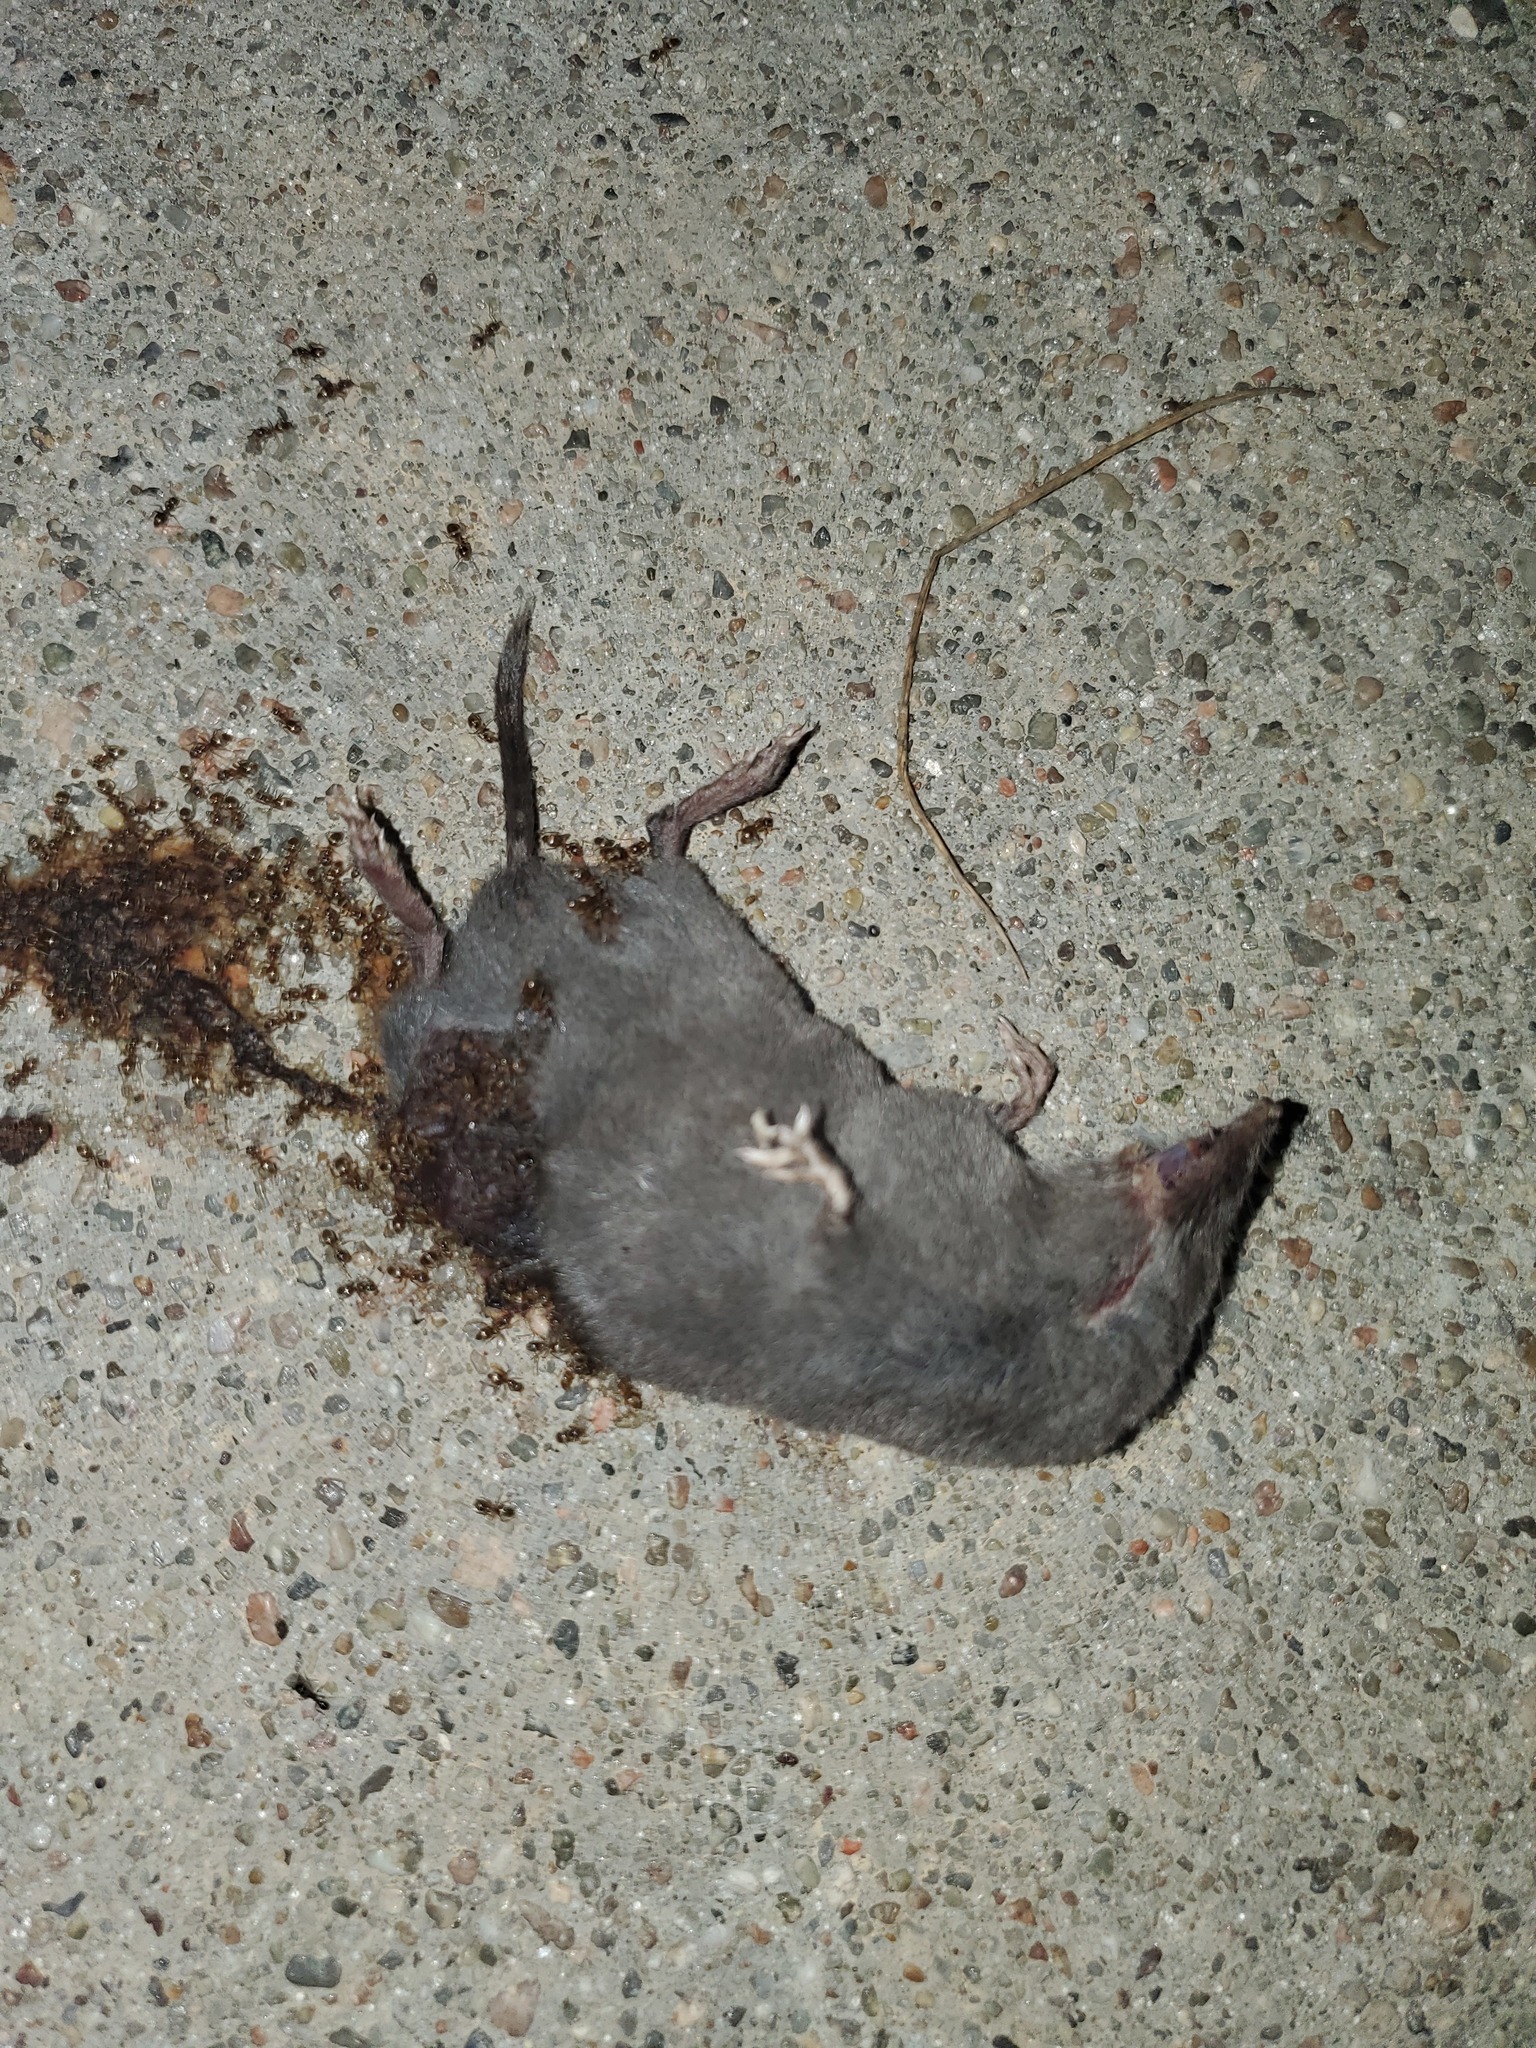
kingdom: Animalia
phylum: Chordata
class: Mammalia
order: Soricomorpha
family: Soricidae
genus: Blarina
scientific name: Blarina brevicauda
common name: Northern short-tailed shrew
